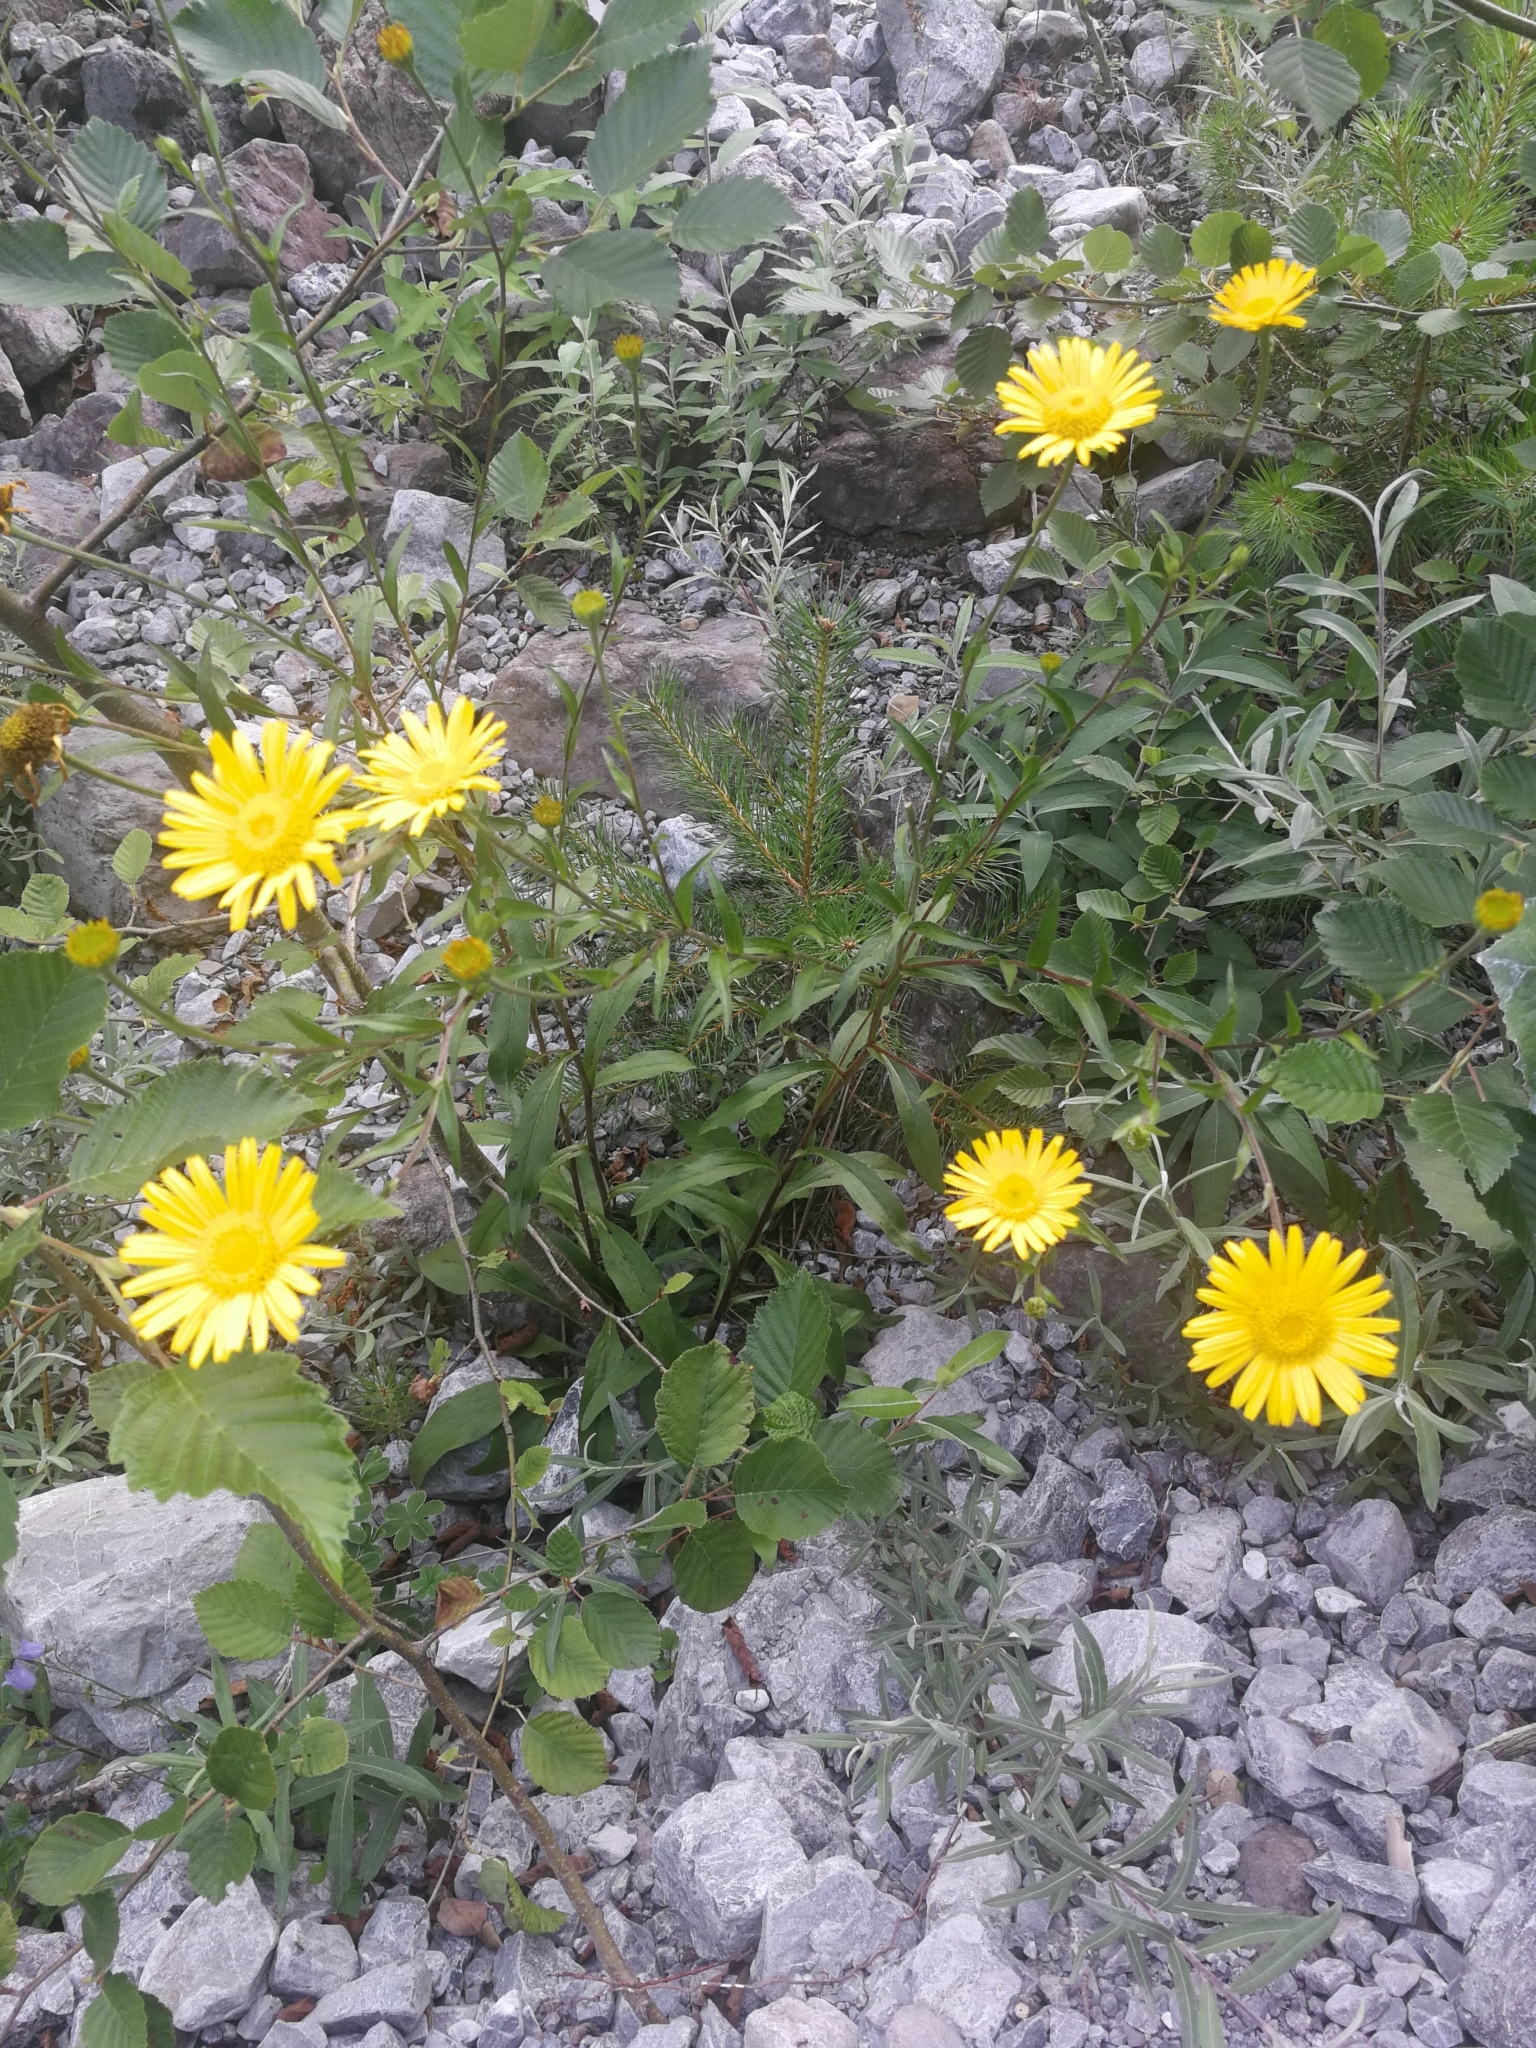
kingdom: Plantae
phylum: Tracheophyta
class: Magnoliopsida
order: Asterales
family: Asteraceae
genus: Buphthalmum
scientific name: Buphthalmum salicifolium
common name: Willow-leaved yellow-oxeye
